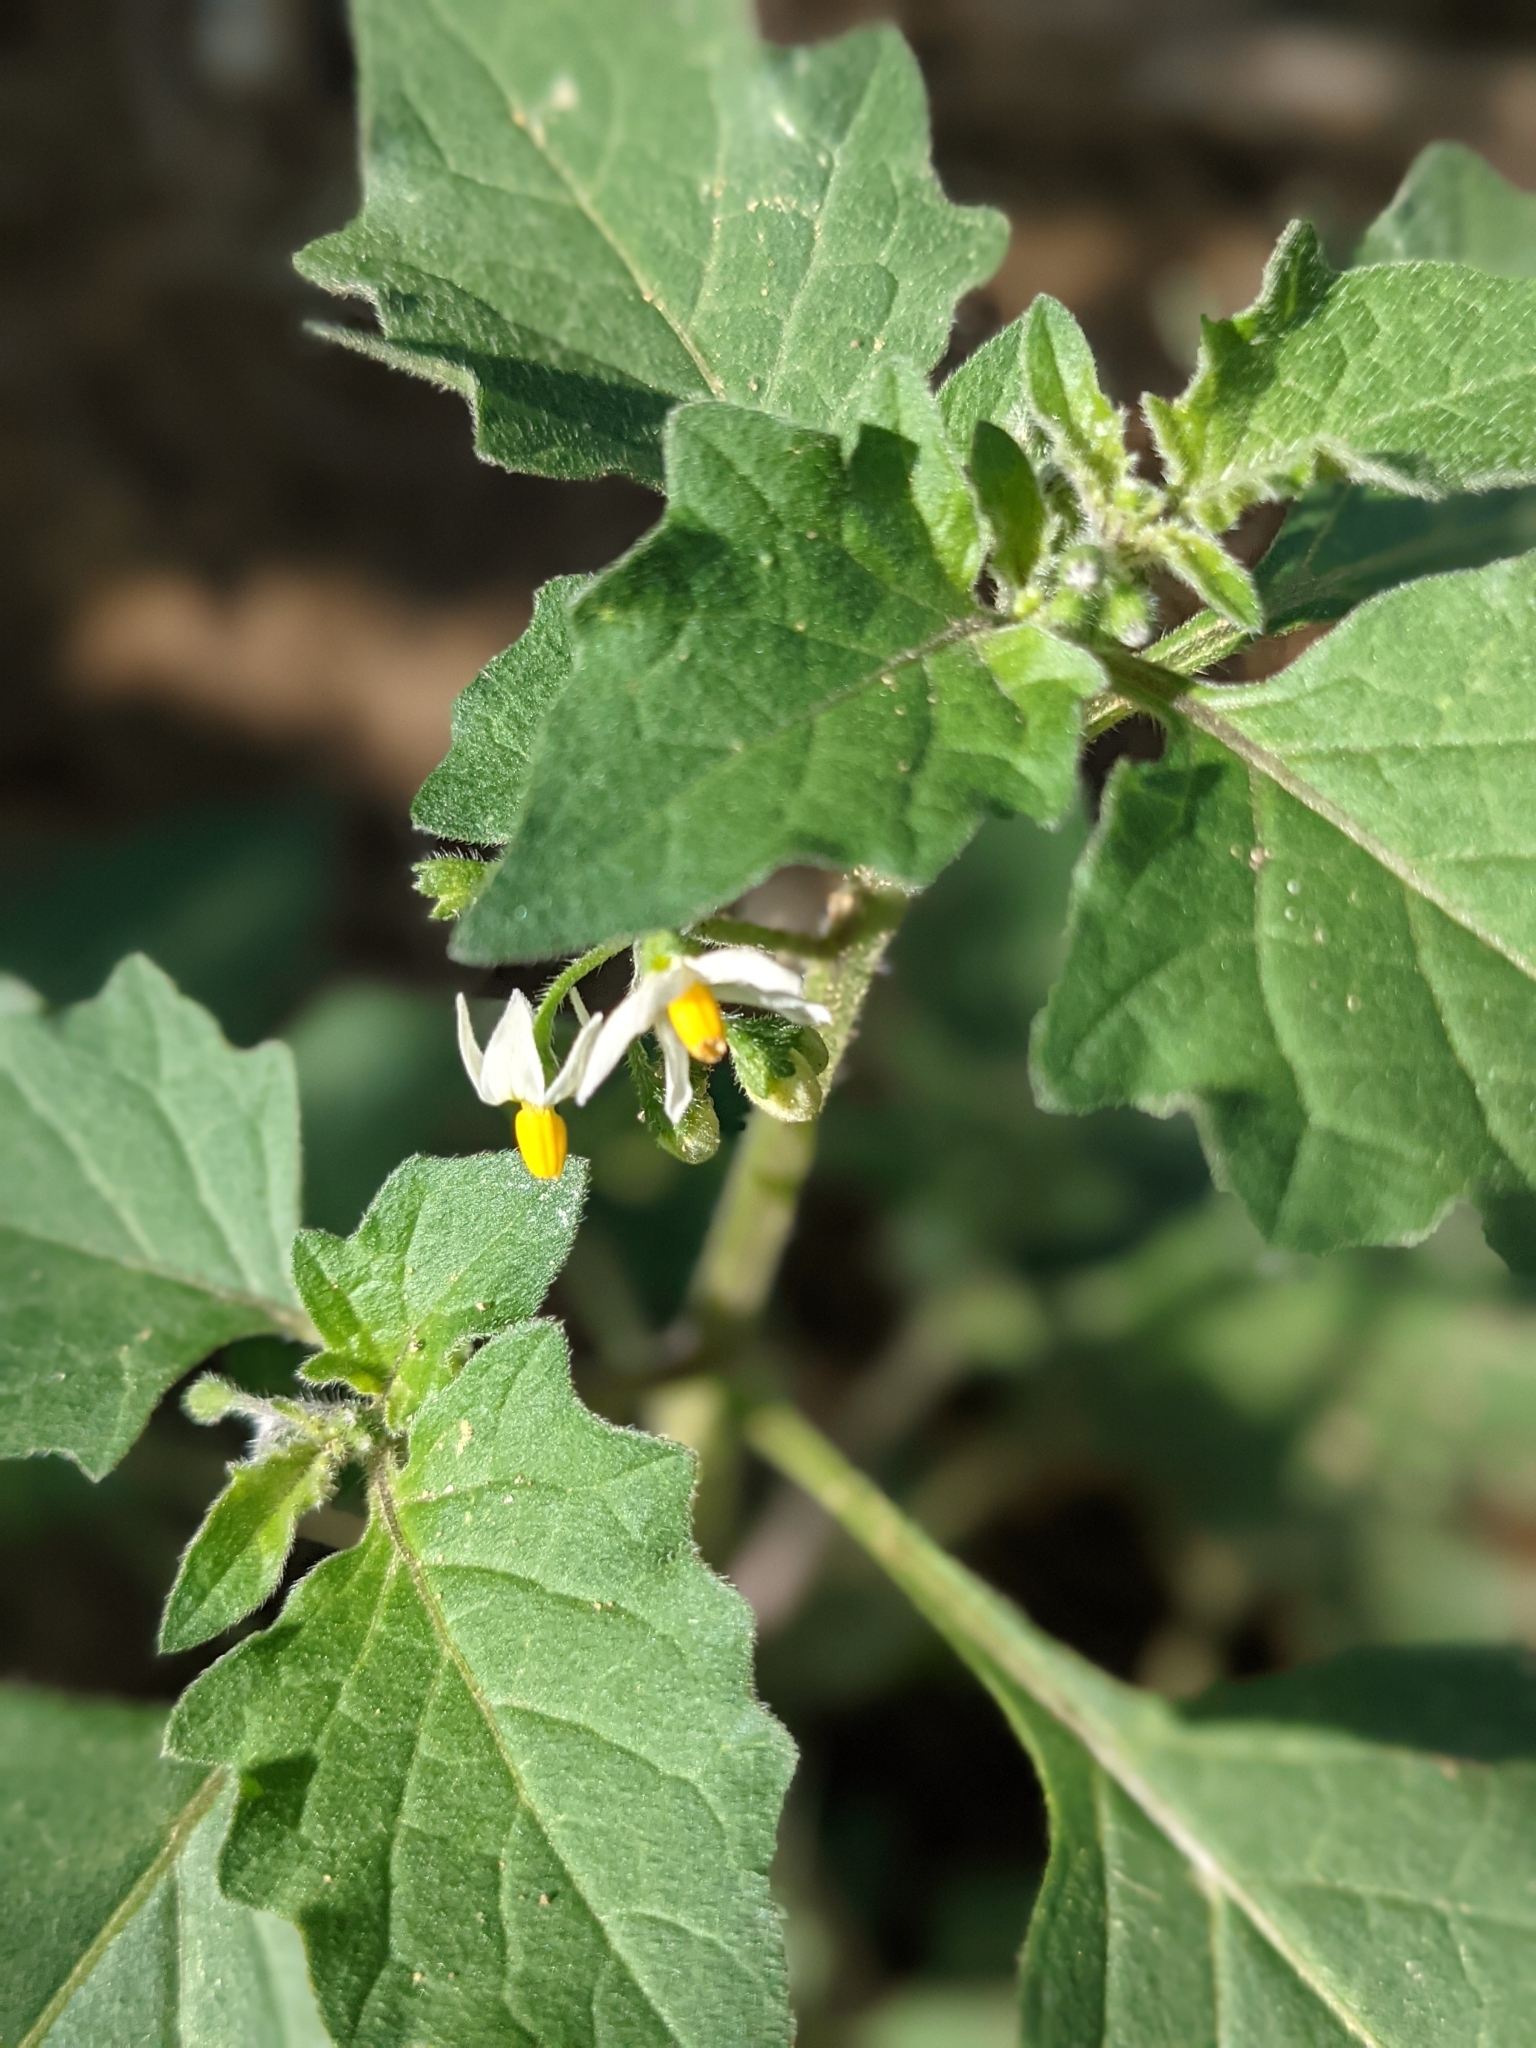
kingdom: Plantae
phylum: Tracheophyta
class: Magnoliopsida
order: Solanales
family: Solanaceae
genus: Solanum
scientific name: Solanum nigrum
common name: Black nightshade
